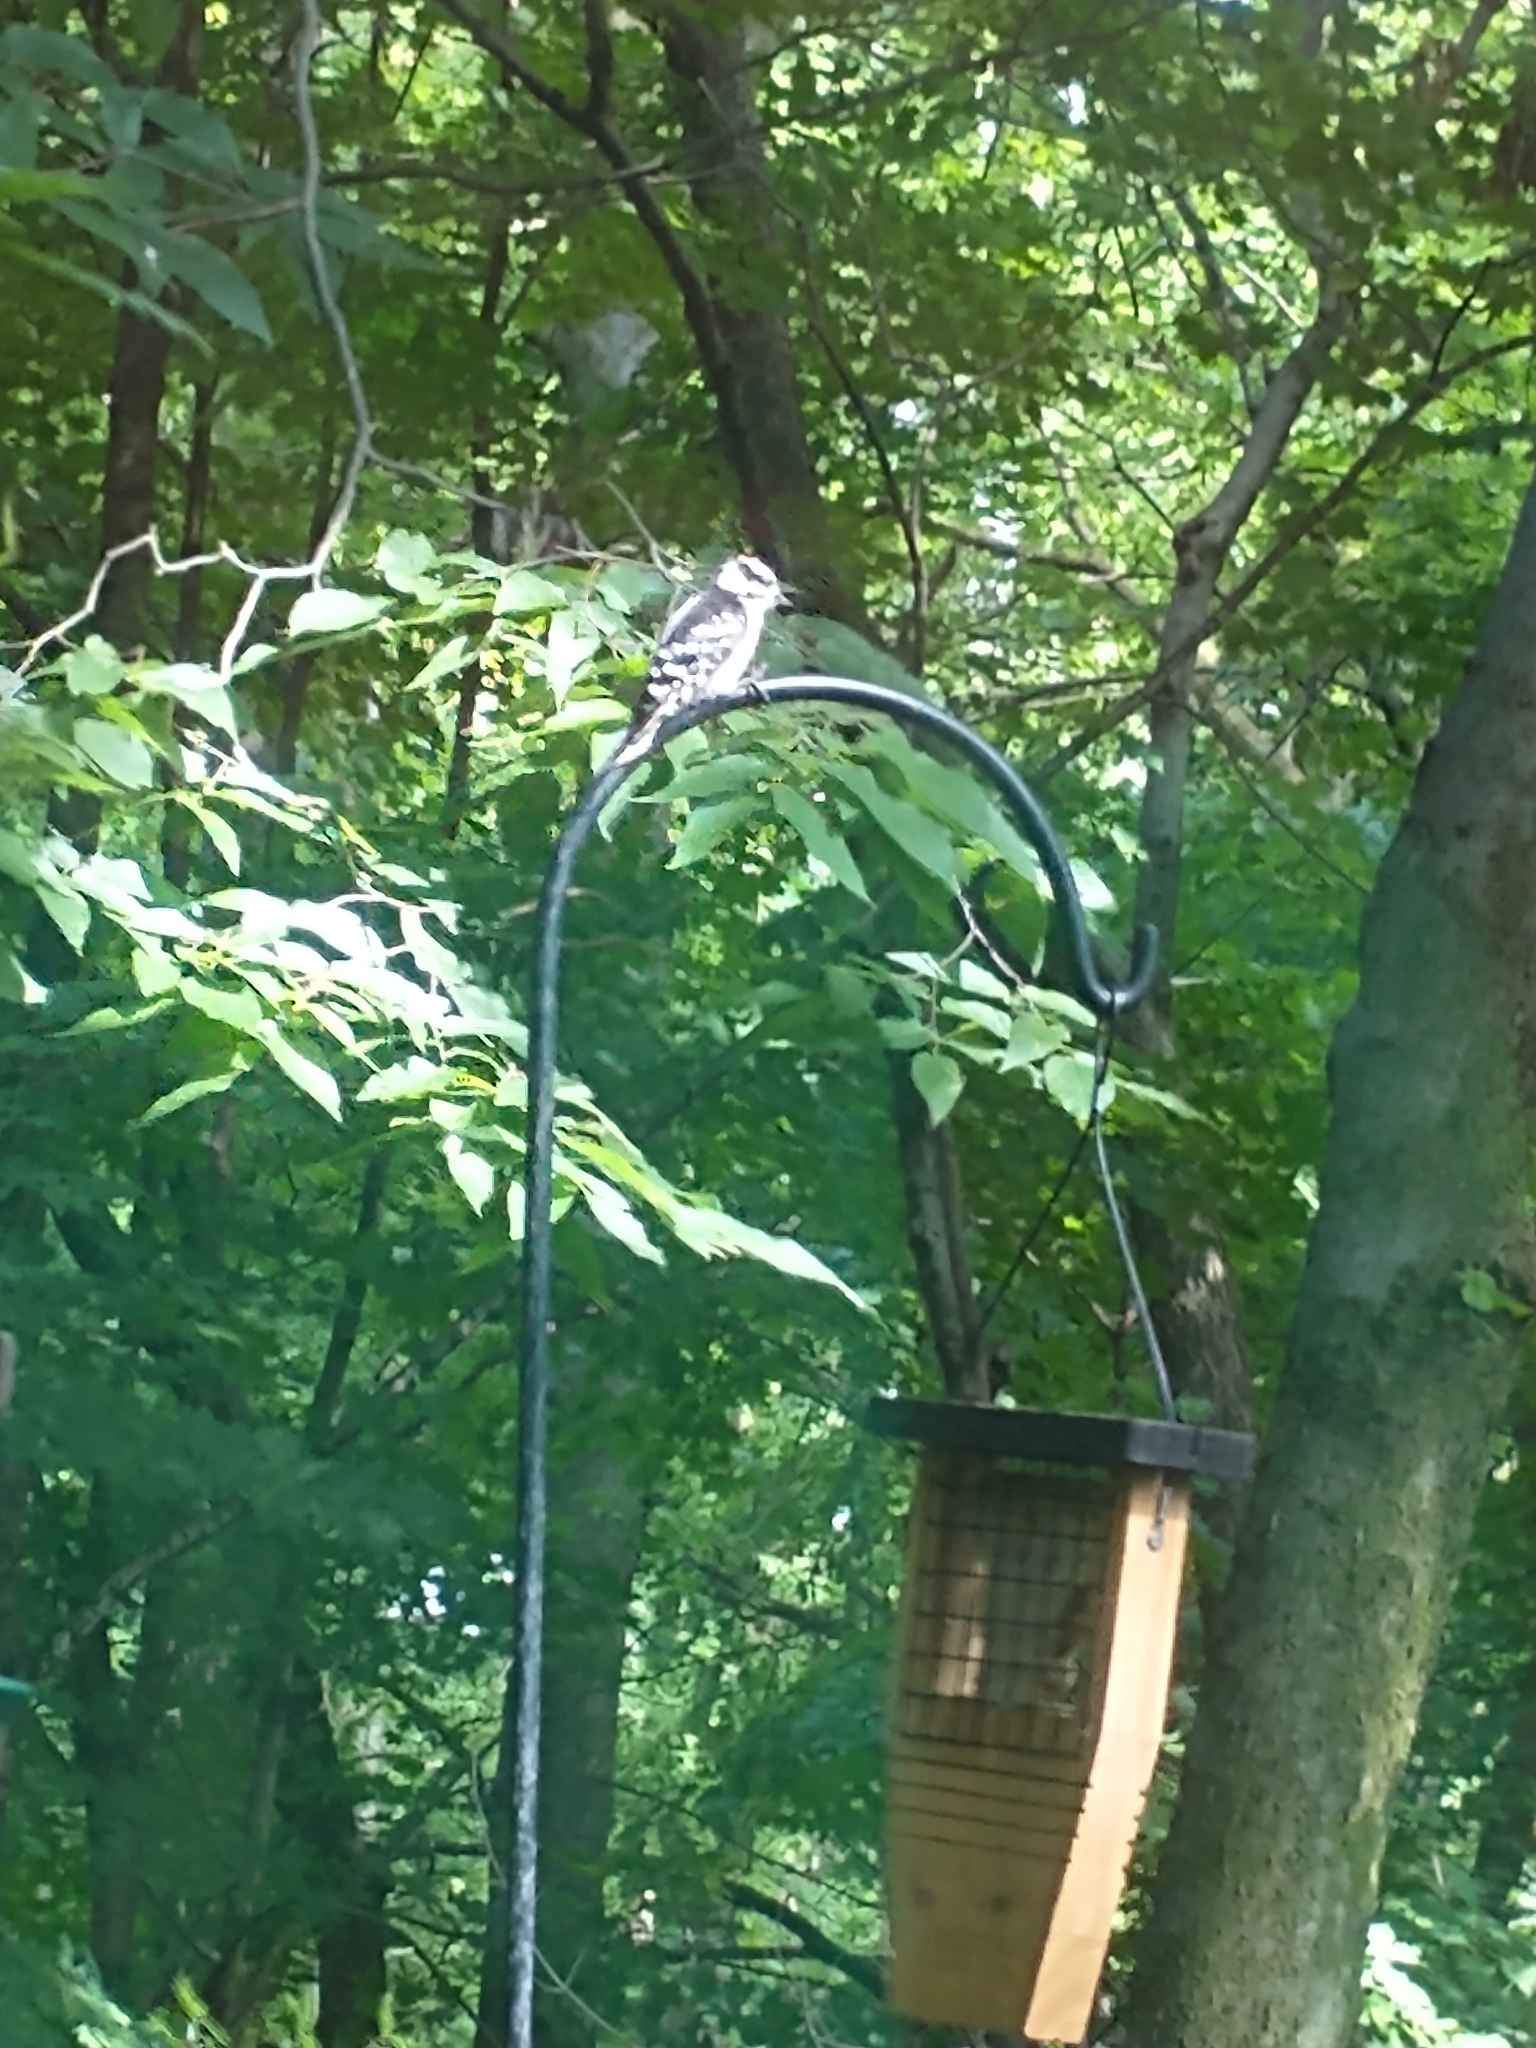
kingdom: Animalia
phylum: Chordata
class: Aves
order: Piciformes
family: Picidae
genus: Dryobates
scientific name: Dryobates pubescens
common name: Downy woodpecker
